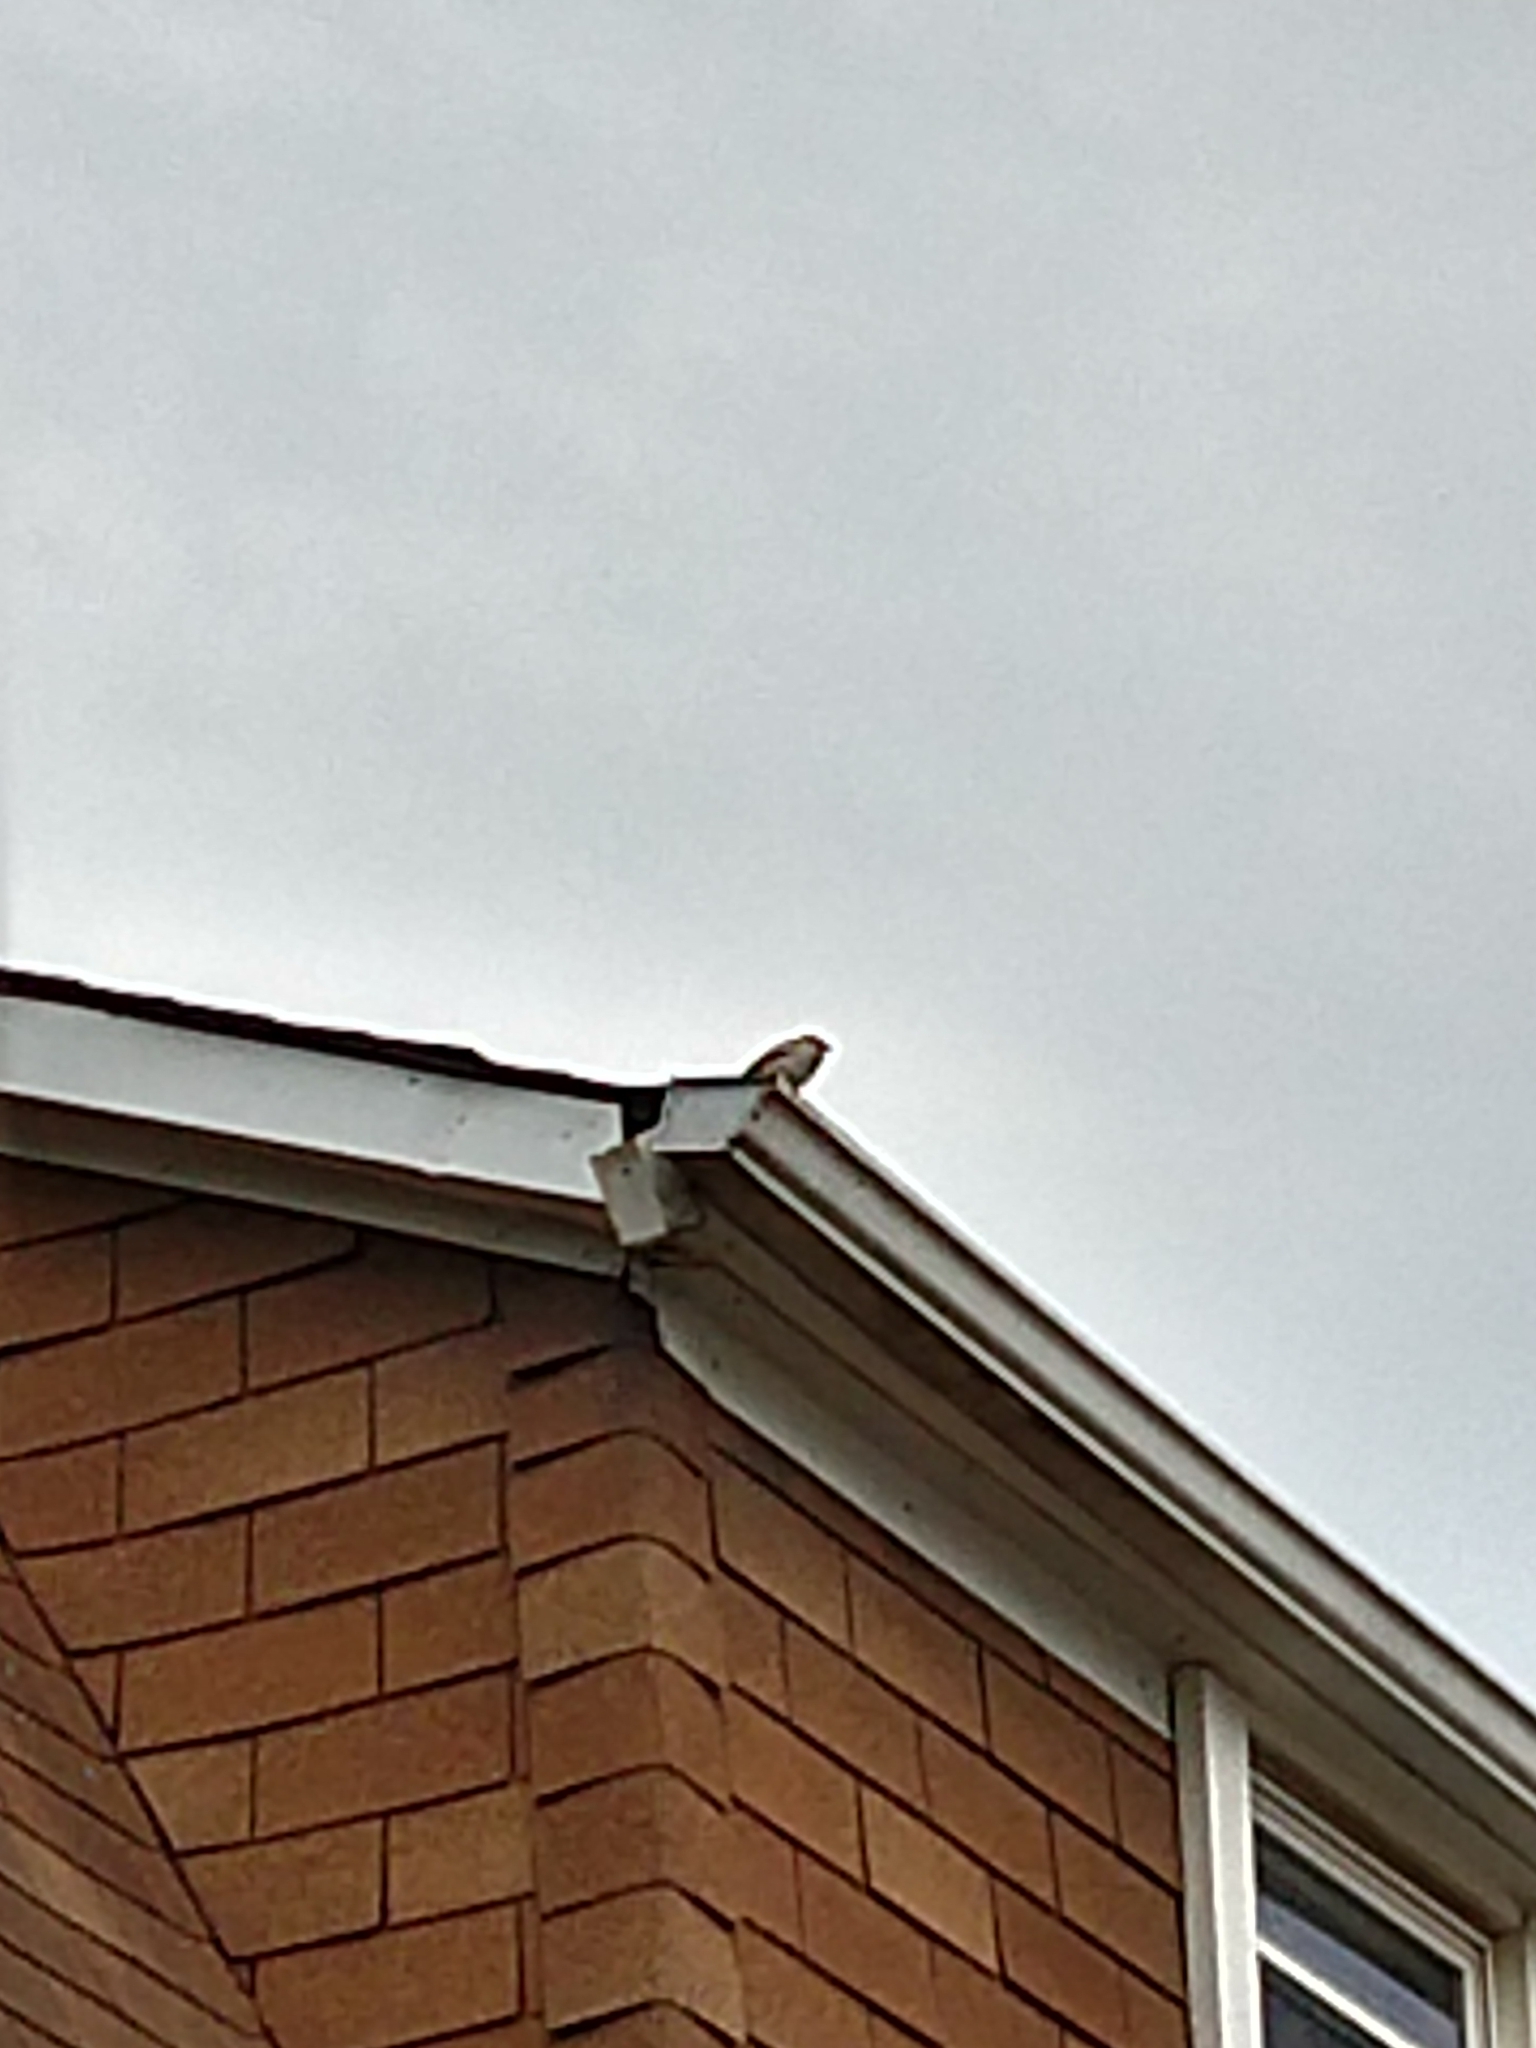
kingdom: Animalia
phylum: Chordata
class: Aves
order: Passeriformes
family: Passeridae
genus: Passer
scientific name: Passer domesticus
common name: House sparrow
